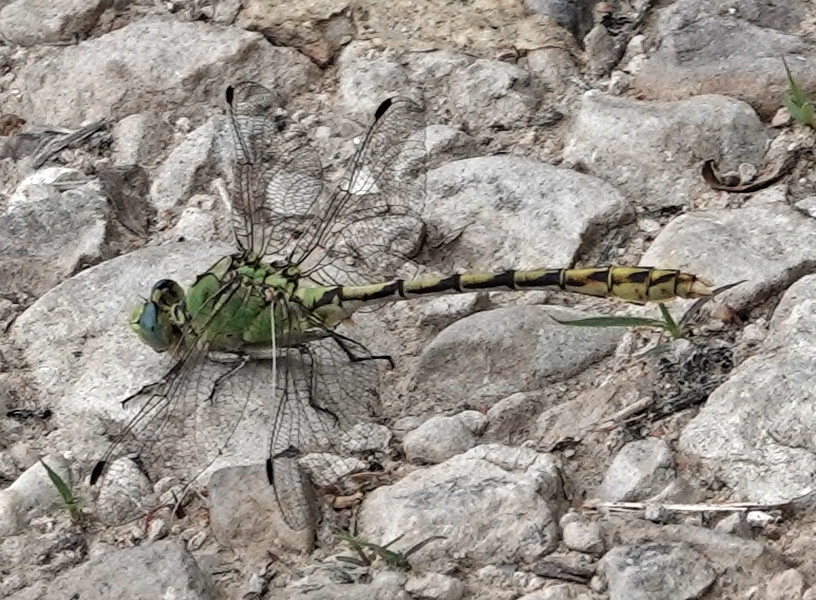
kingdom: Animalia
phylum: Arthropoda
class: Insecta
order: Odonata
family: Gomphidae
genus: Ophiogomphus
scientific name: Ophiogomphus severus
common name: Pale snaketail
